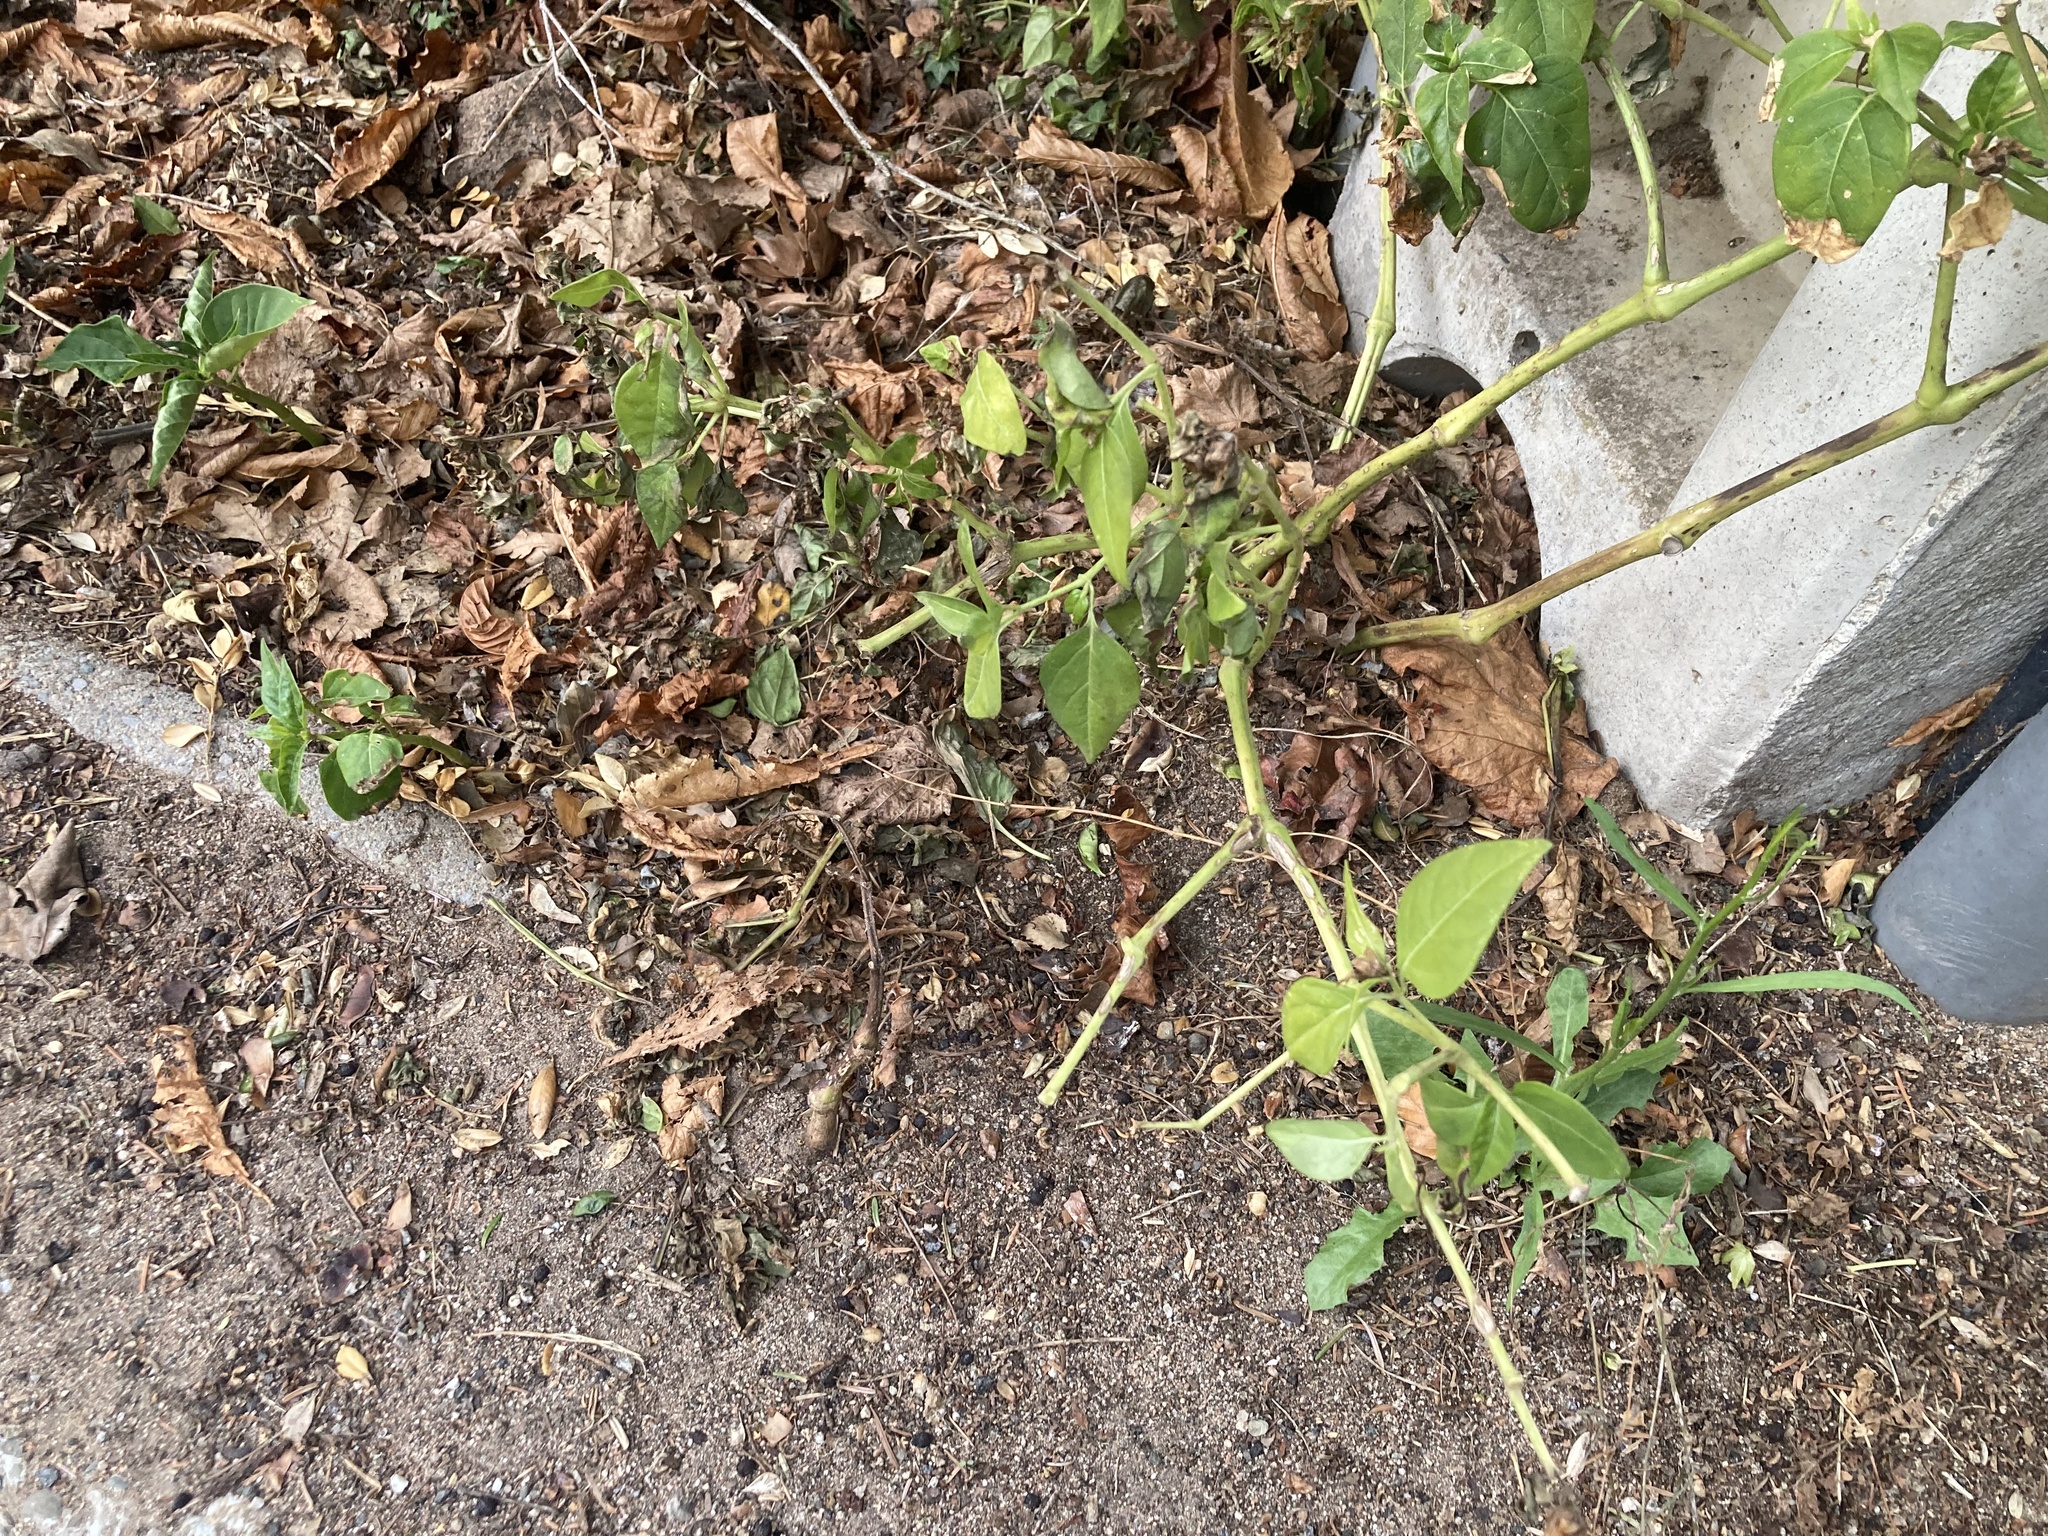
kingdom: Plantae
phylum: Tracheophyta
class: Magnoliopsida
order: Caryophyllales
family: Nyctaginaceae
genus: Mirabilis
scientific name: Mirabilis jalapa
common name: Marvel-of-peru
